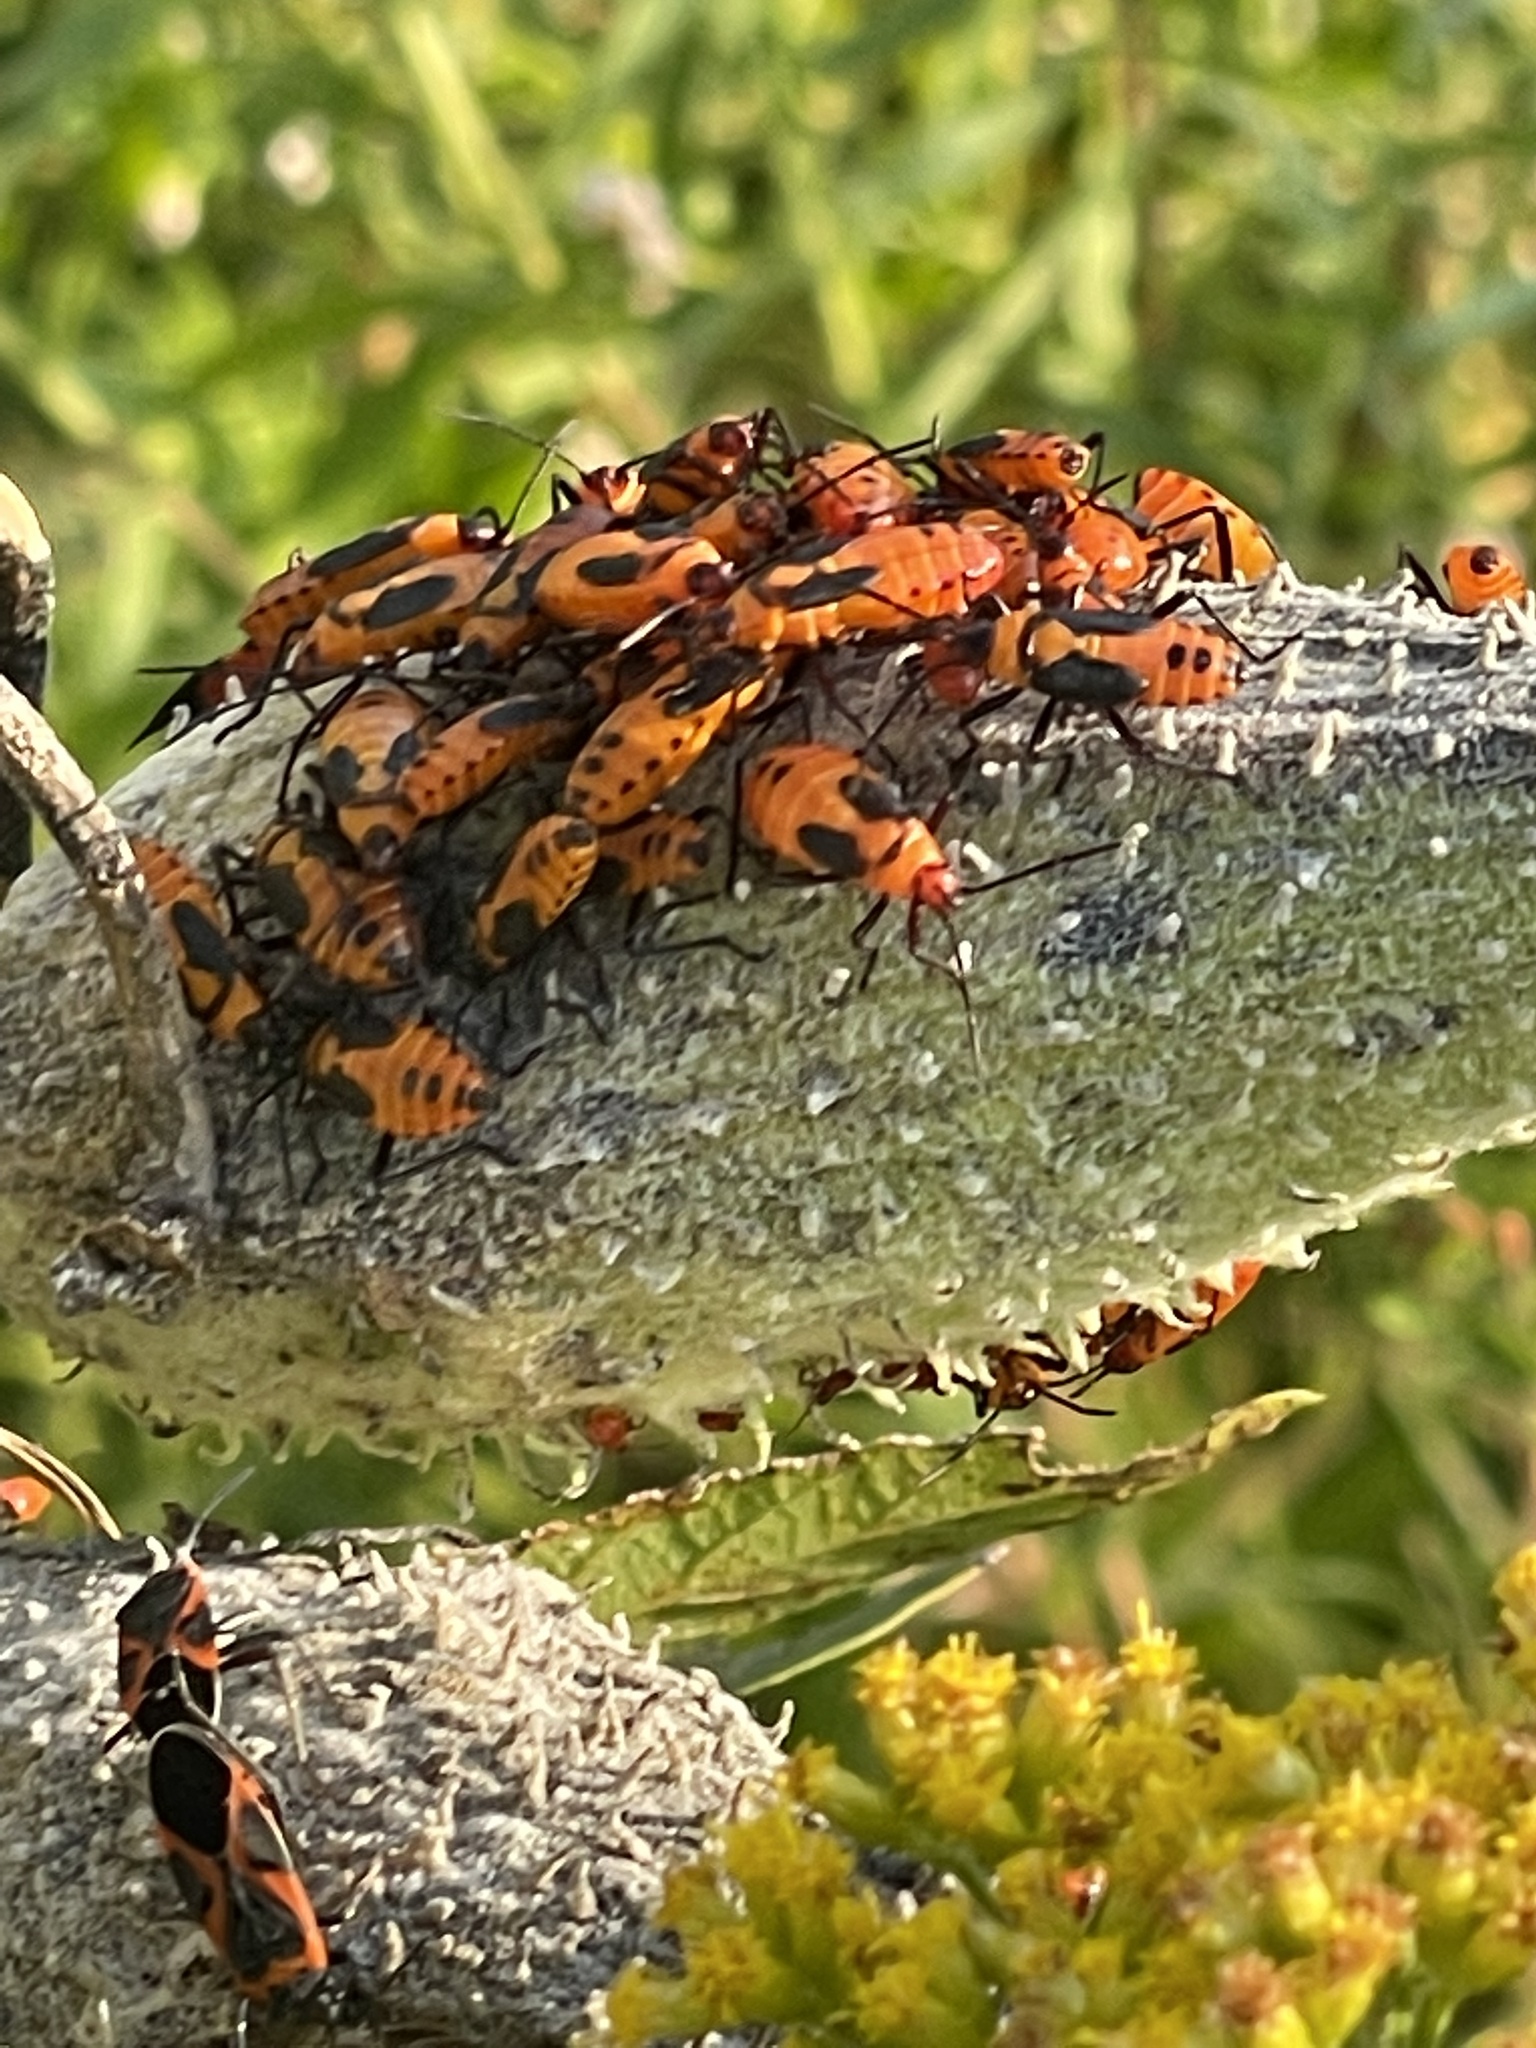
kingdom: Animalia
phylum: Arthropoda
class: Insecta
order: Hemiptera
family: Lygaeidae
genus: Oncopeltus
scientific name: Oncopeltus fasciatus
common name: Large milkweed bug
